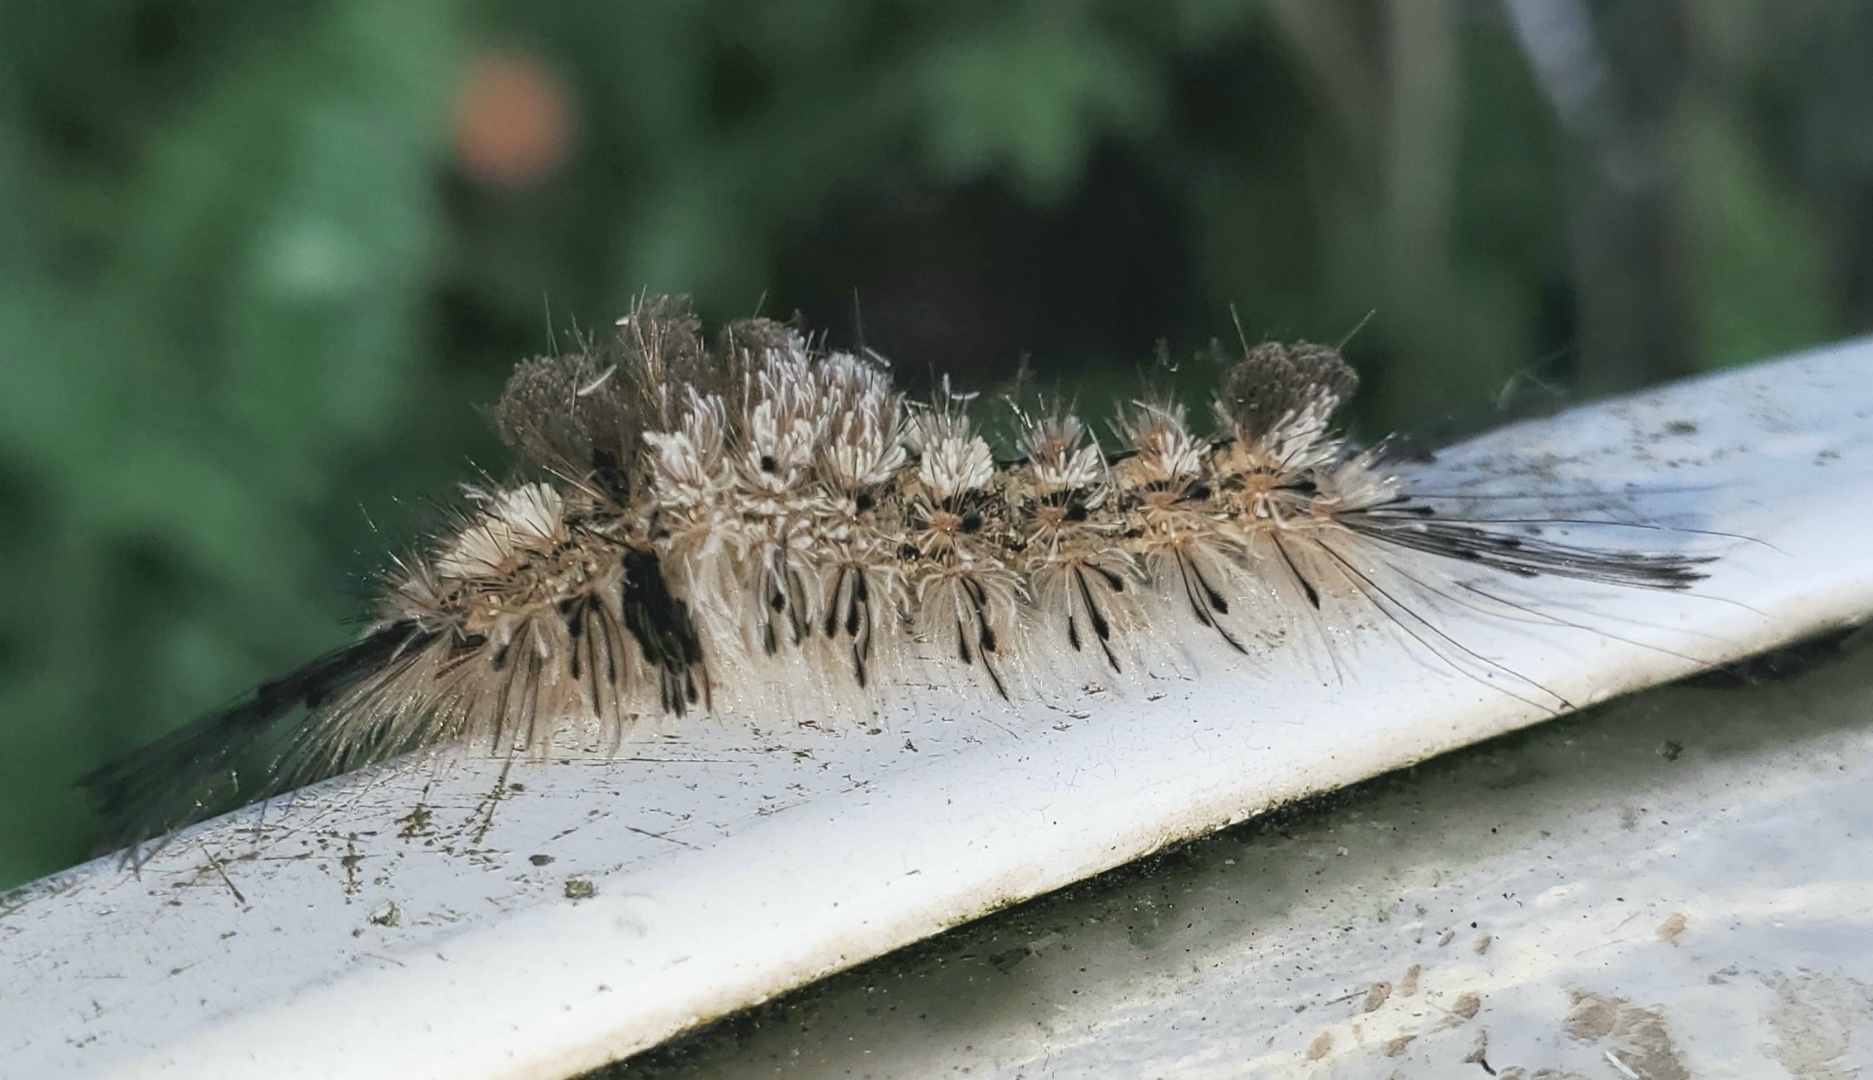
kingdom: Animalia
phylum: Arthropoda
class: Insecta
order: Lepidoptera
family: Erebidae
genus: Dasychira
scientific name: Dasychira meridionalis
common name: Southern tussock moth
